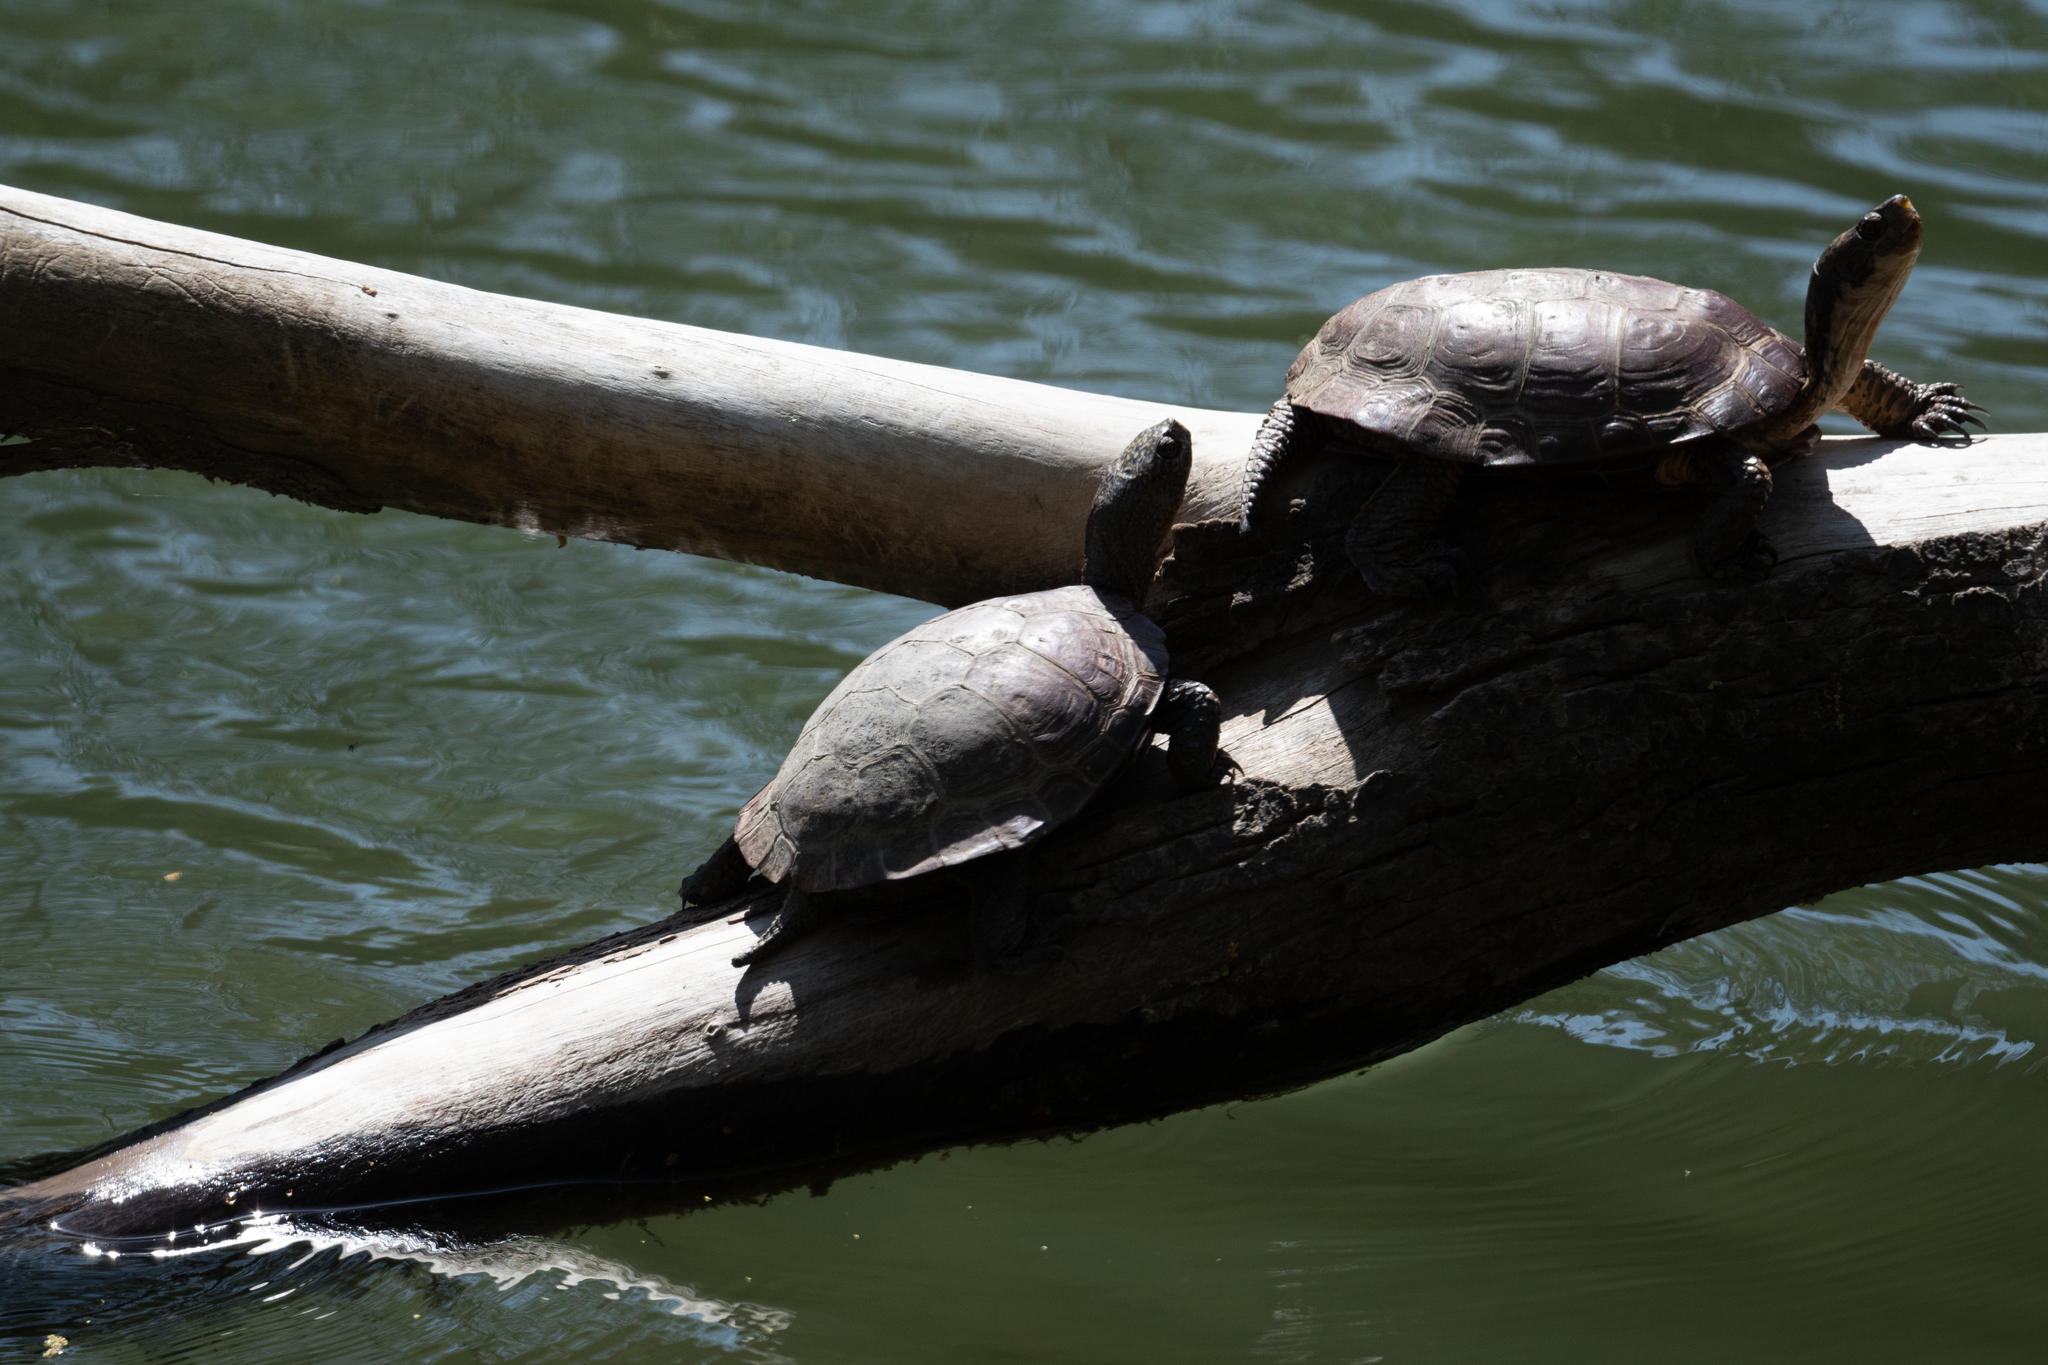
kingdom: Animalia
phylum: Chordata
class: Testudines
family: Emydidae
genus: Actinemys
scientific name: Actinemys marmorata
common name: Western pond turtle
